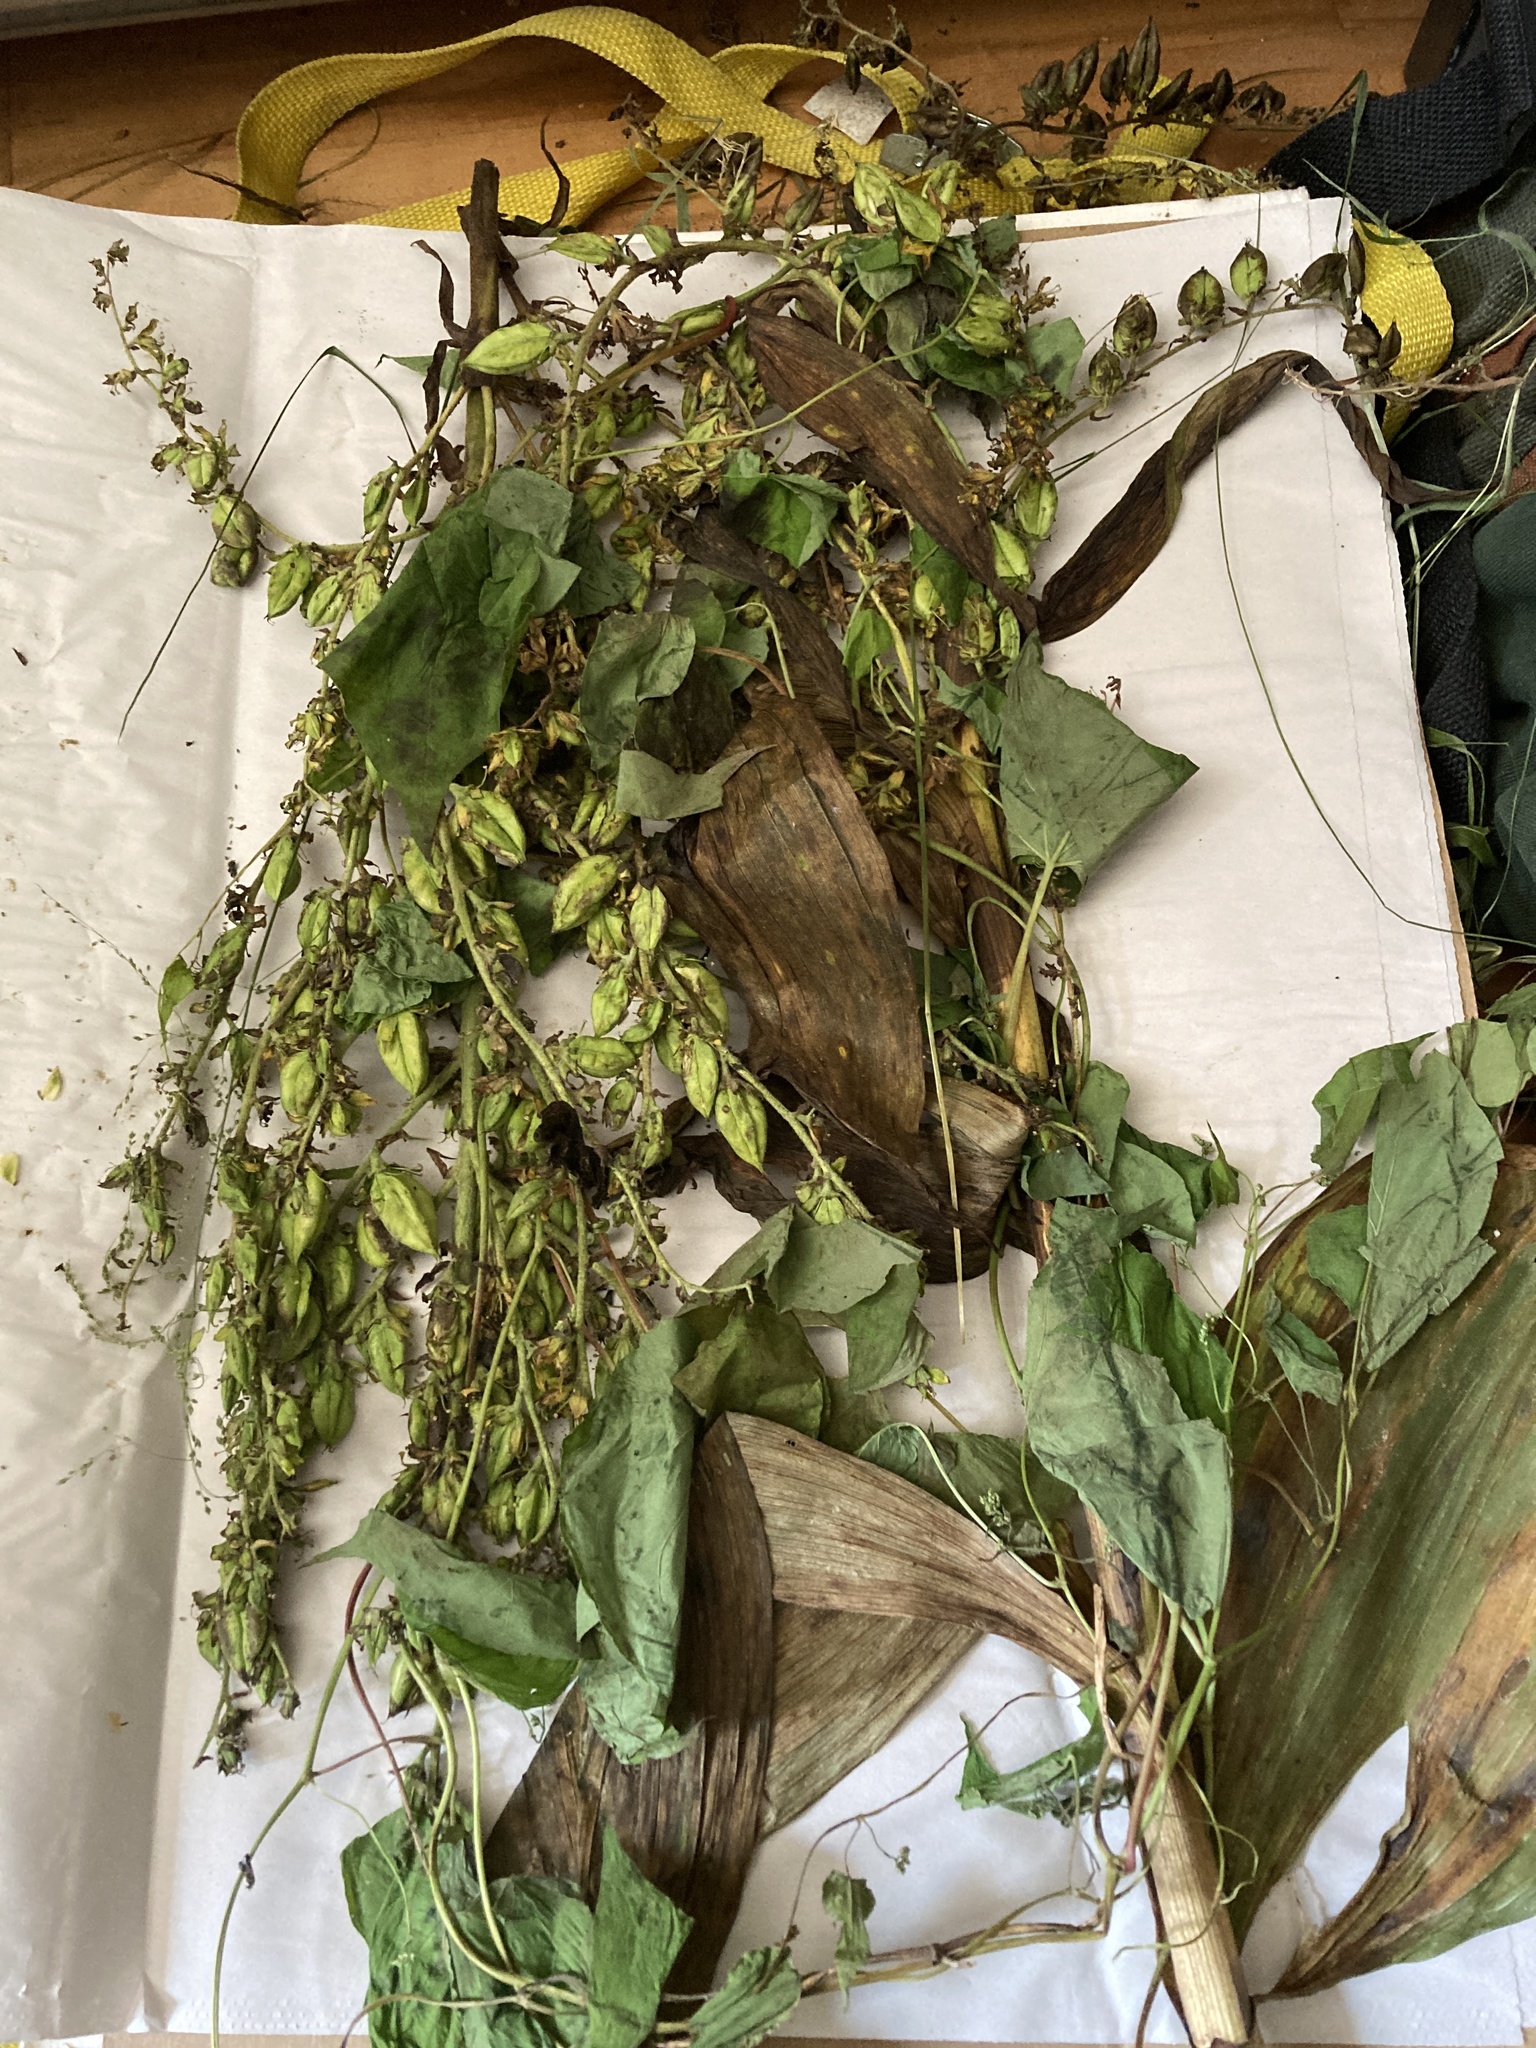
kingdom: Plantae
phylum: Tracheophyta
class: Liliopsida
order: Liliales
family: Melanthiaceae
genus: Veratrum
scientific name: Veratrum viride
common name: American false hellebore
